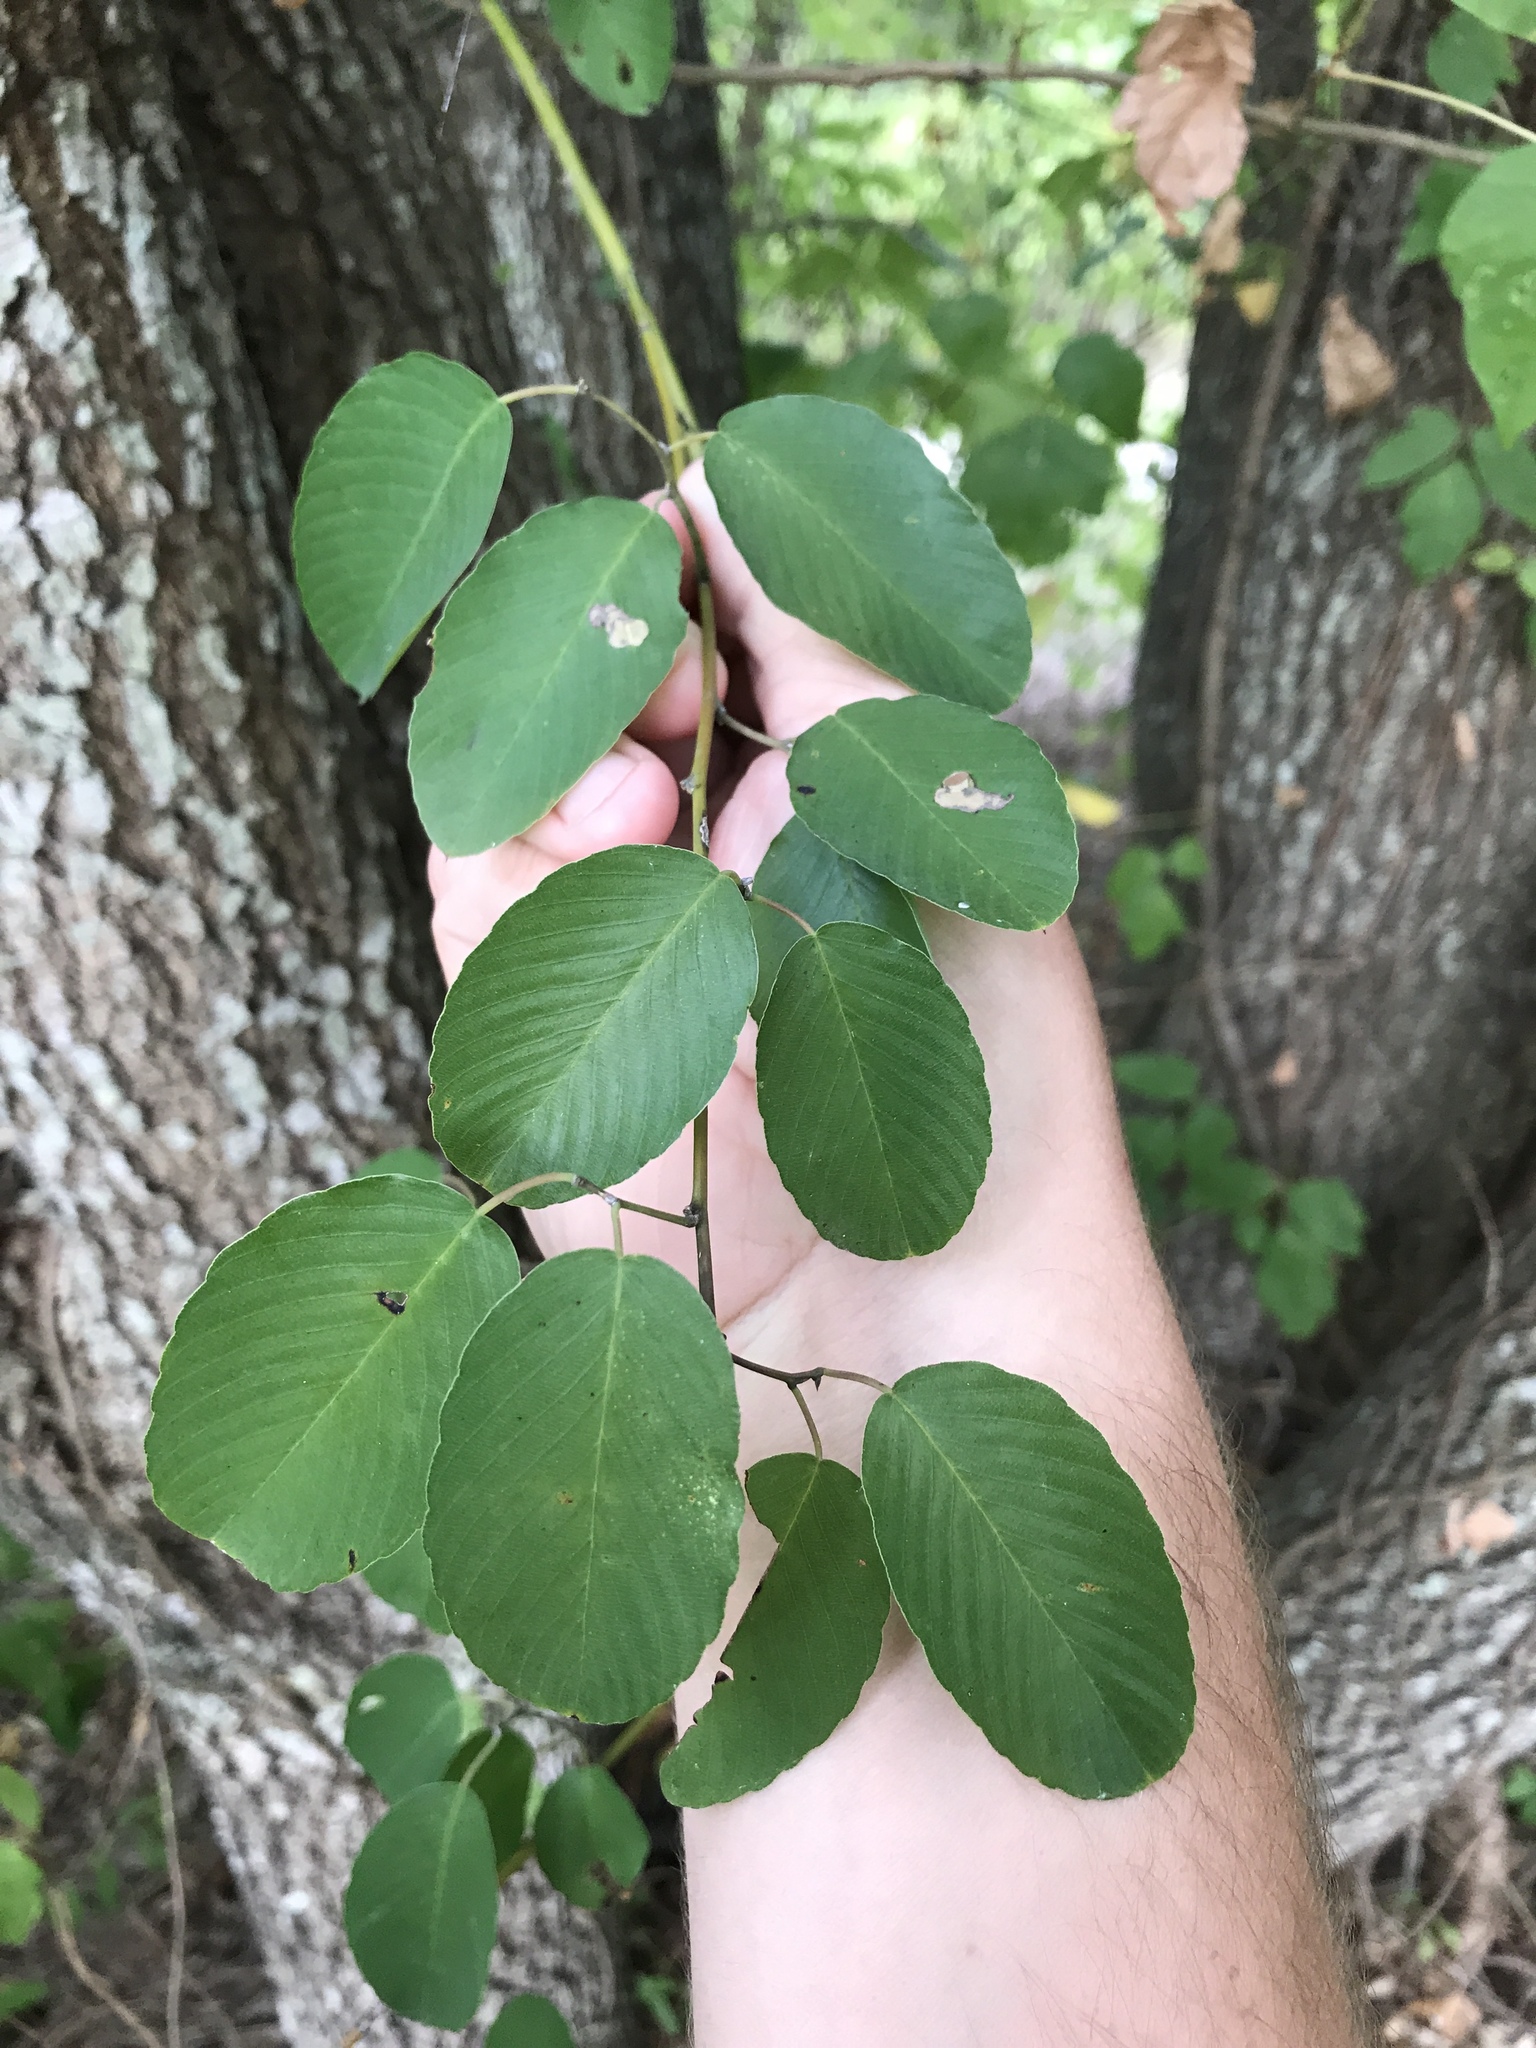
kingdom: Plantae
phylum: Tracheophyta
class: Magnoliopsida
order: Rosales
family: Rhamnaceae
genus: Berchemia
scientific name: Berchemia scandens
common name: Supplejack
